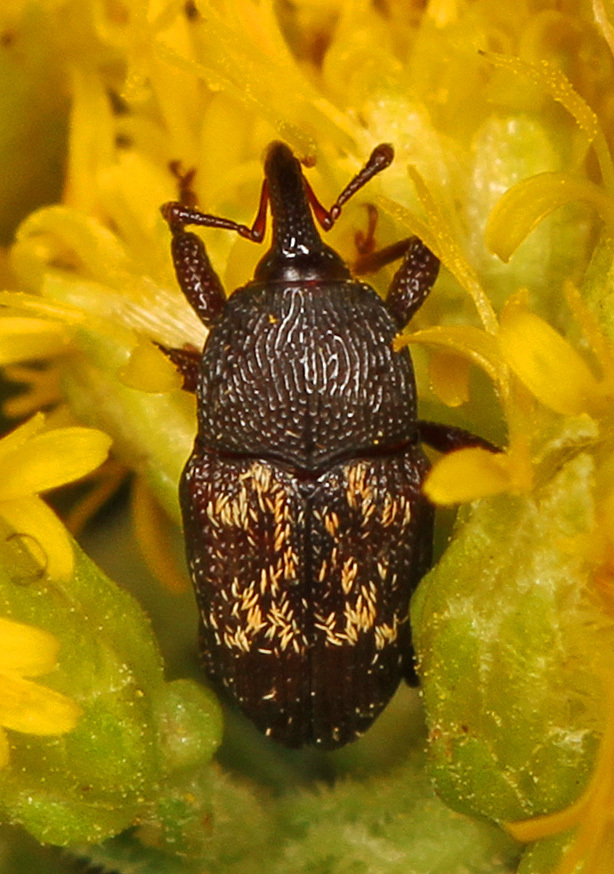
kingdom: Animalia
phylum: Arthropoda
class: Insecta
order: Coleoptera
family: Curculionidae
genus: Glyptobaris
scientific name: Glyptobaris lecontei
